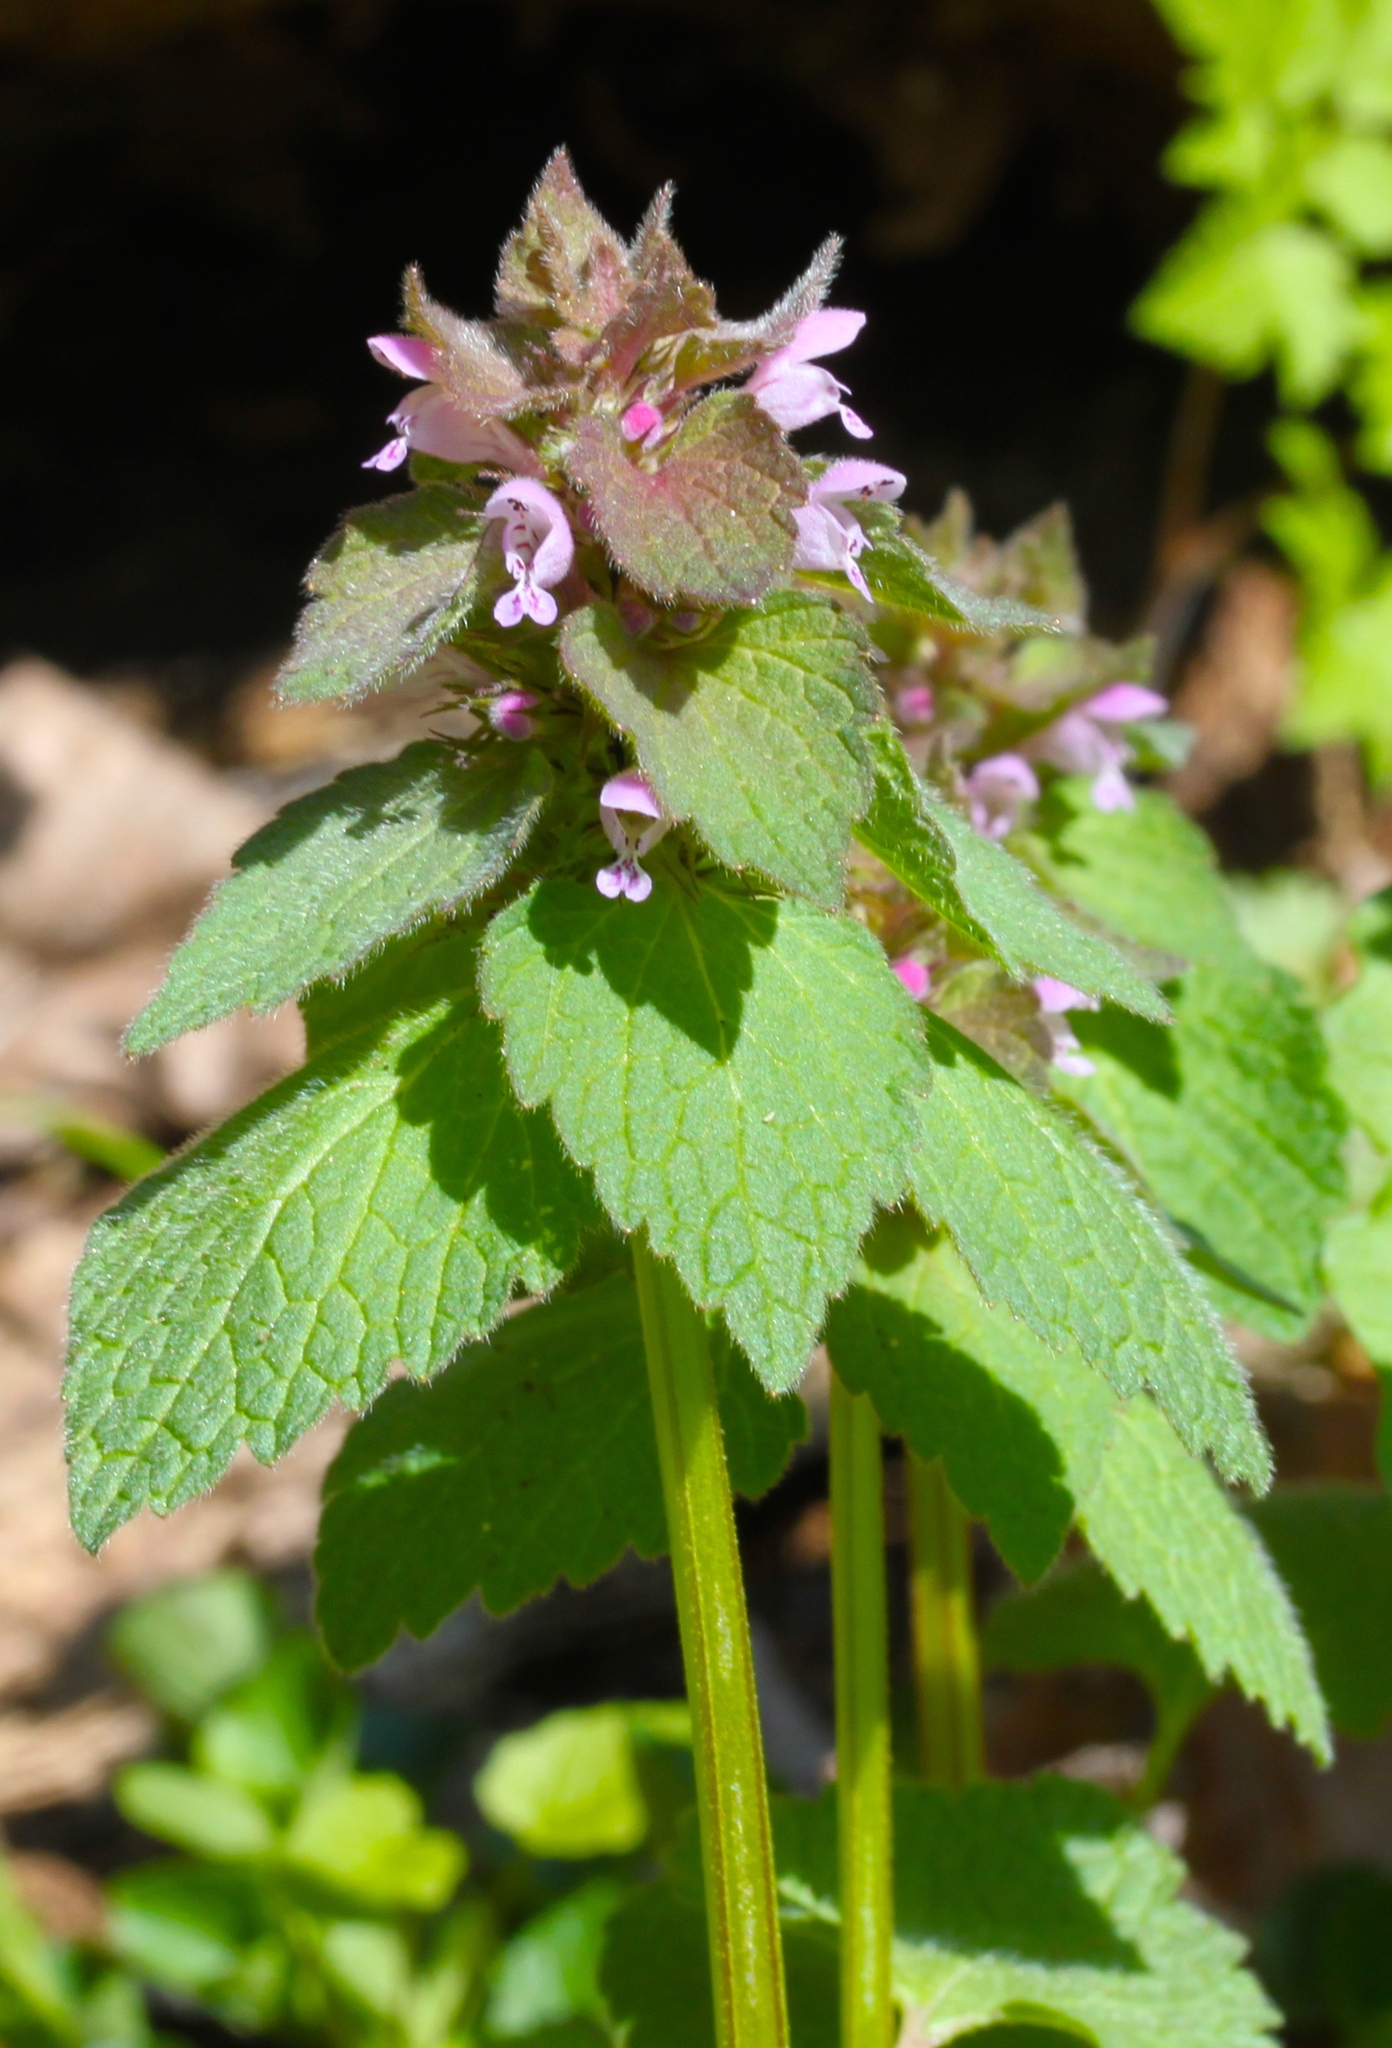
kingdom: Plantae
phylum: Tracheophyta
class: Magnoliopsida
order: Lamiales
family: Lamiaceae
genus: Lamium
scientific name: Lamium purpureum
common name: Red dead-nettle
